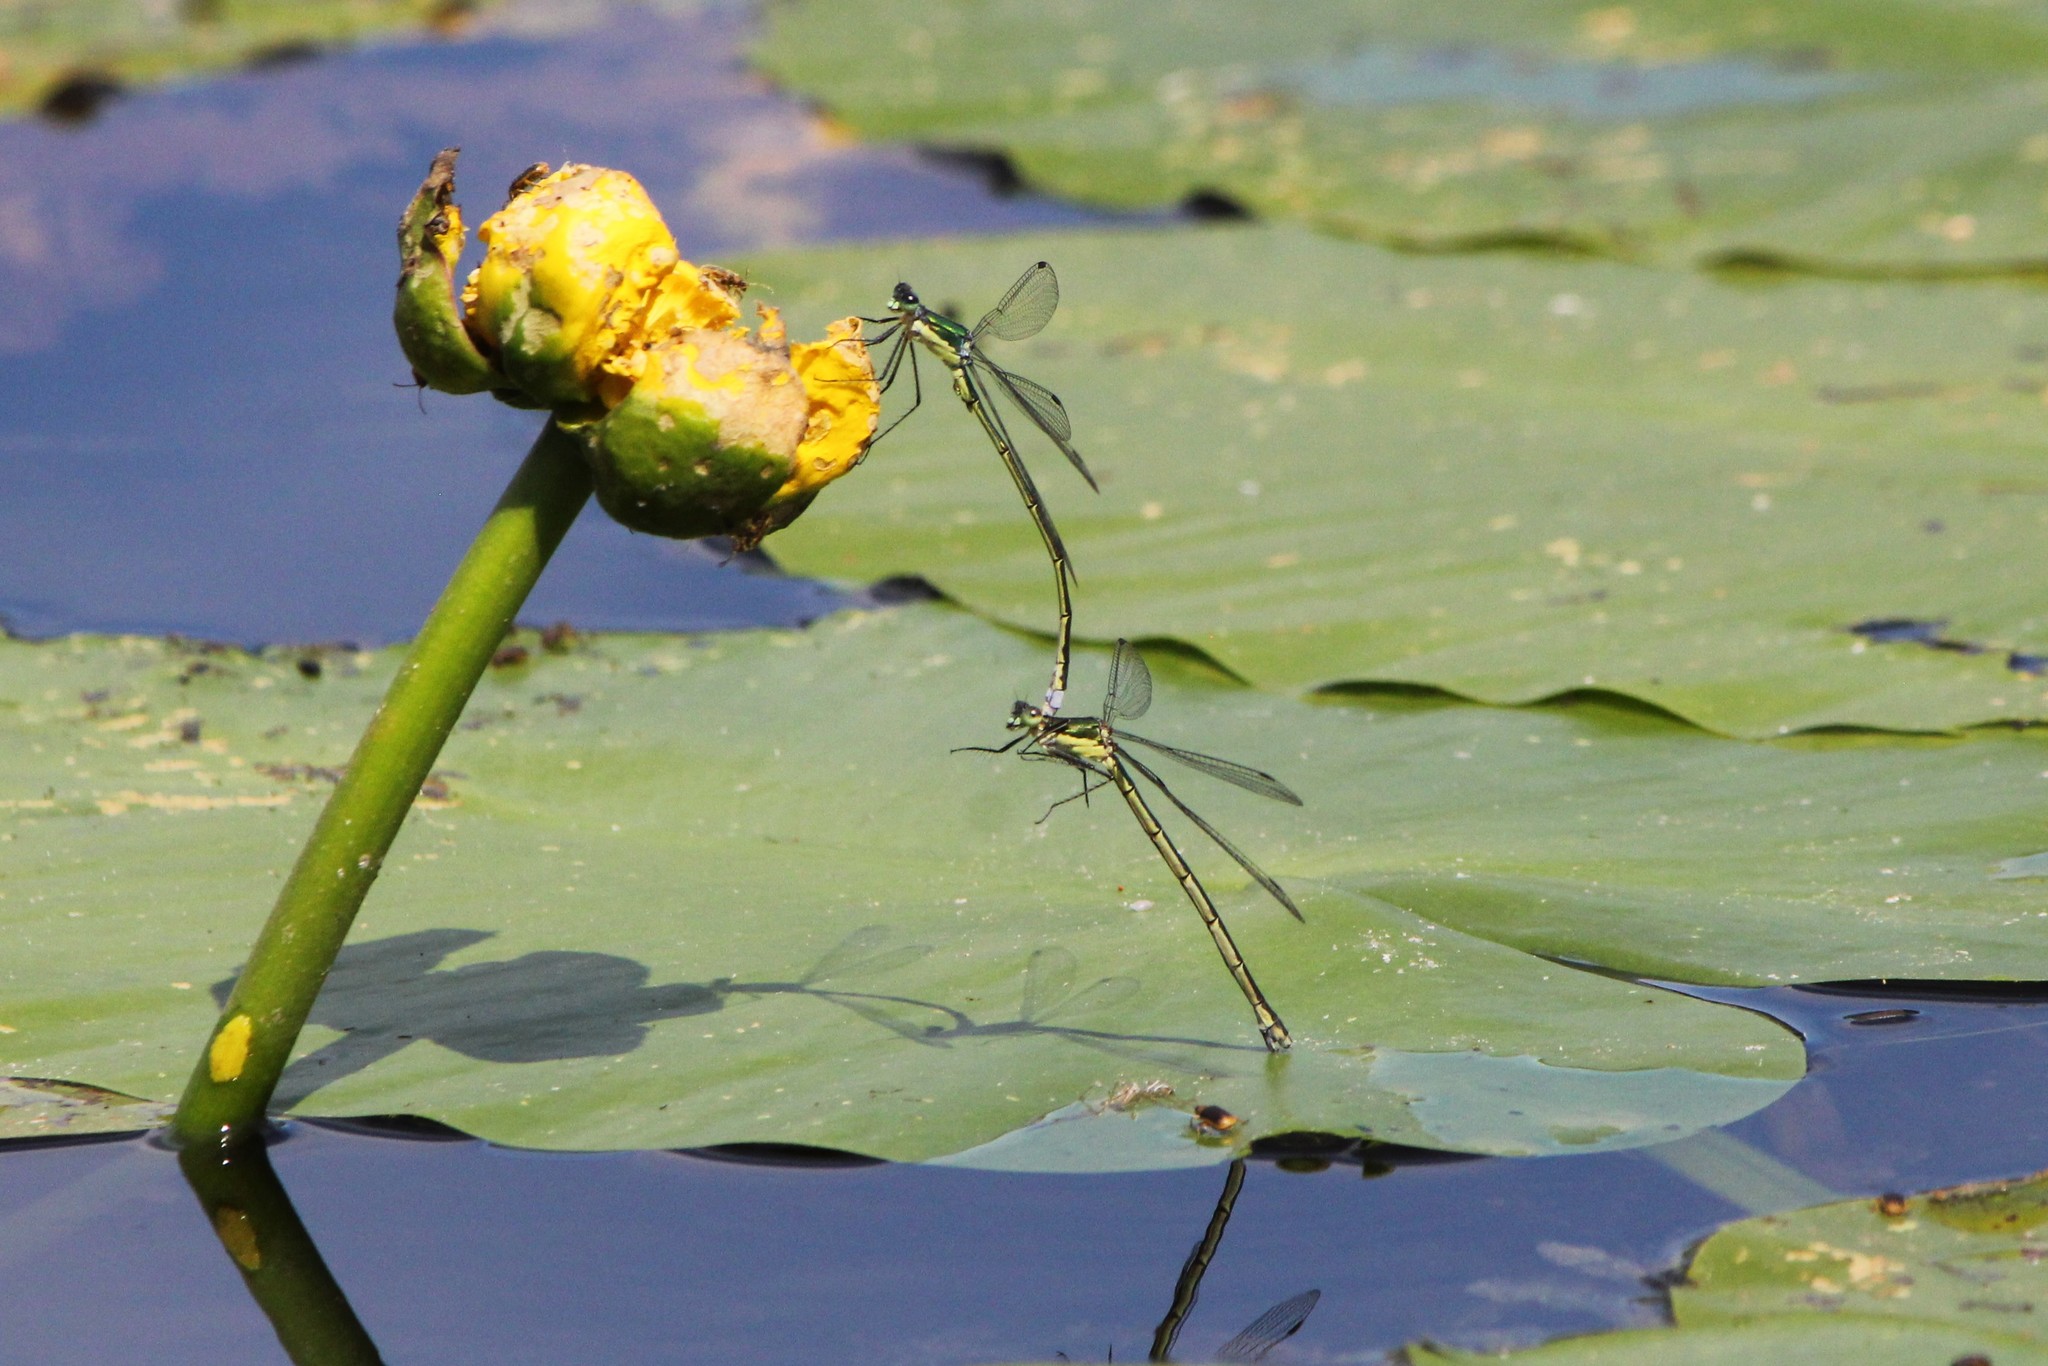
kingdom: Animalia
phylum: Arthropoda
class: Insecta
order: Odonata
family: Lestidae
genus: Lestes
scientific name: Lestes inaequalis
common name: Elegant spreadwing
